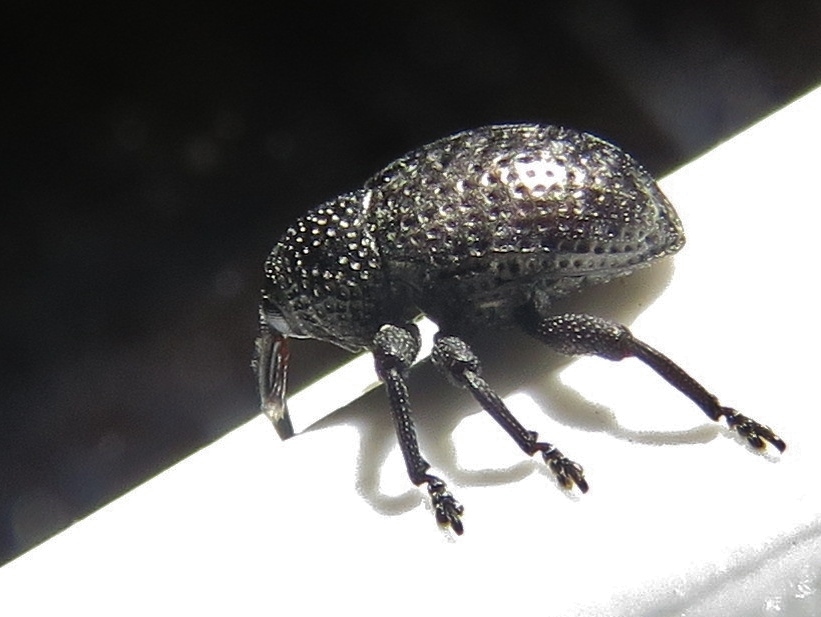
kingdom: Animalia
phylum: Arthropoda
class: Insecta
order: Coleoptera
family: Curculionidae
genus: Chalcodermus
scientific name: Chalcodermus aeneus
